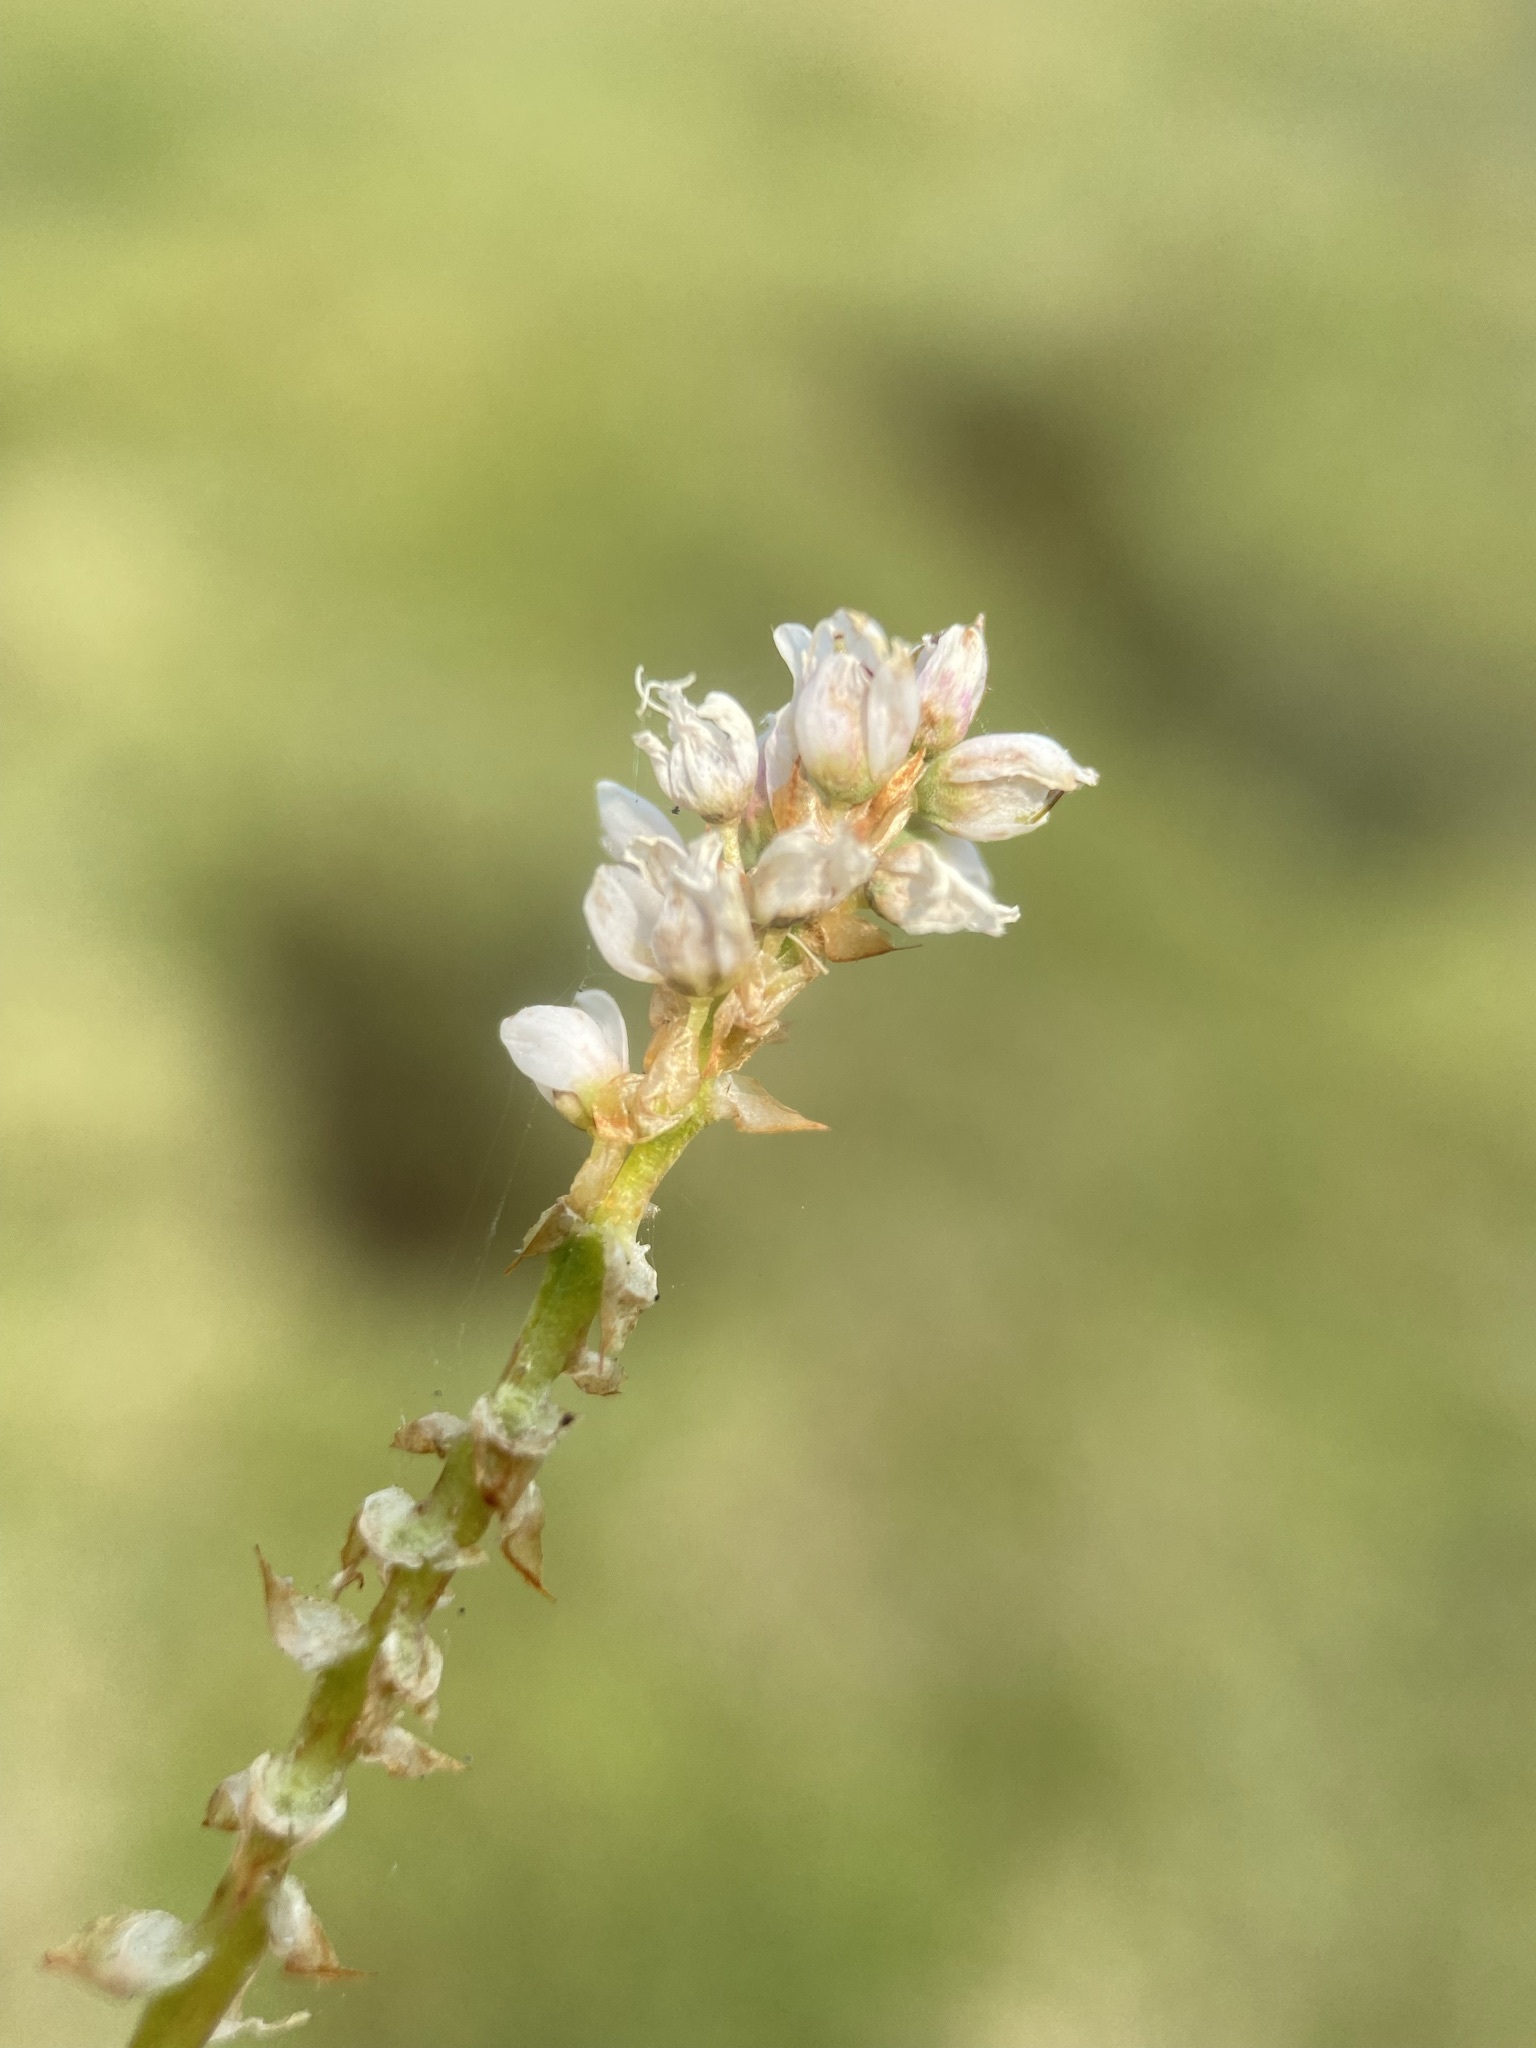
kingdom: Plantae
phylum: Tracheophyta
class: Magnoliopsida
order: Caryophyllales
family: Polygonaceae
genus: Bistorta
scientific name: Bistorta vivipara
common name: Alpine bistort
